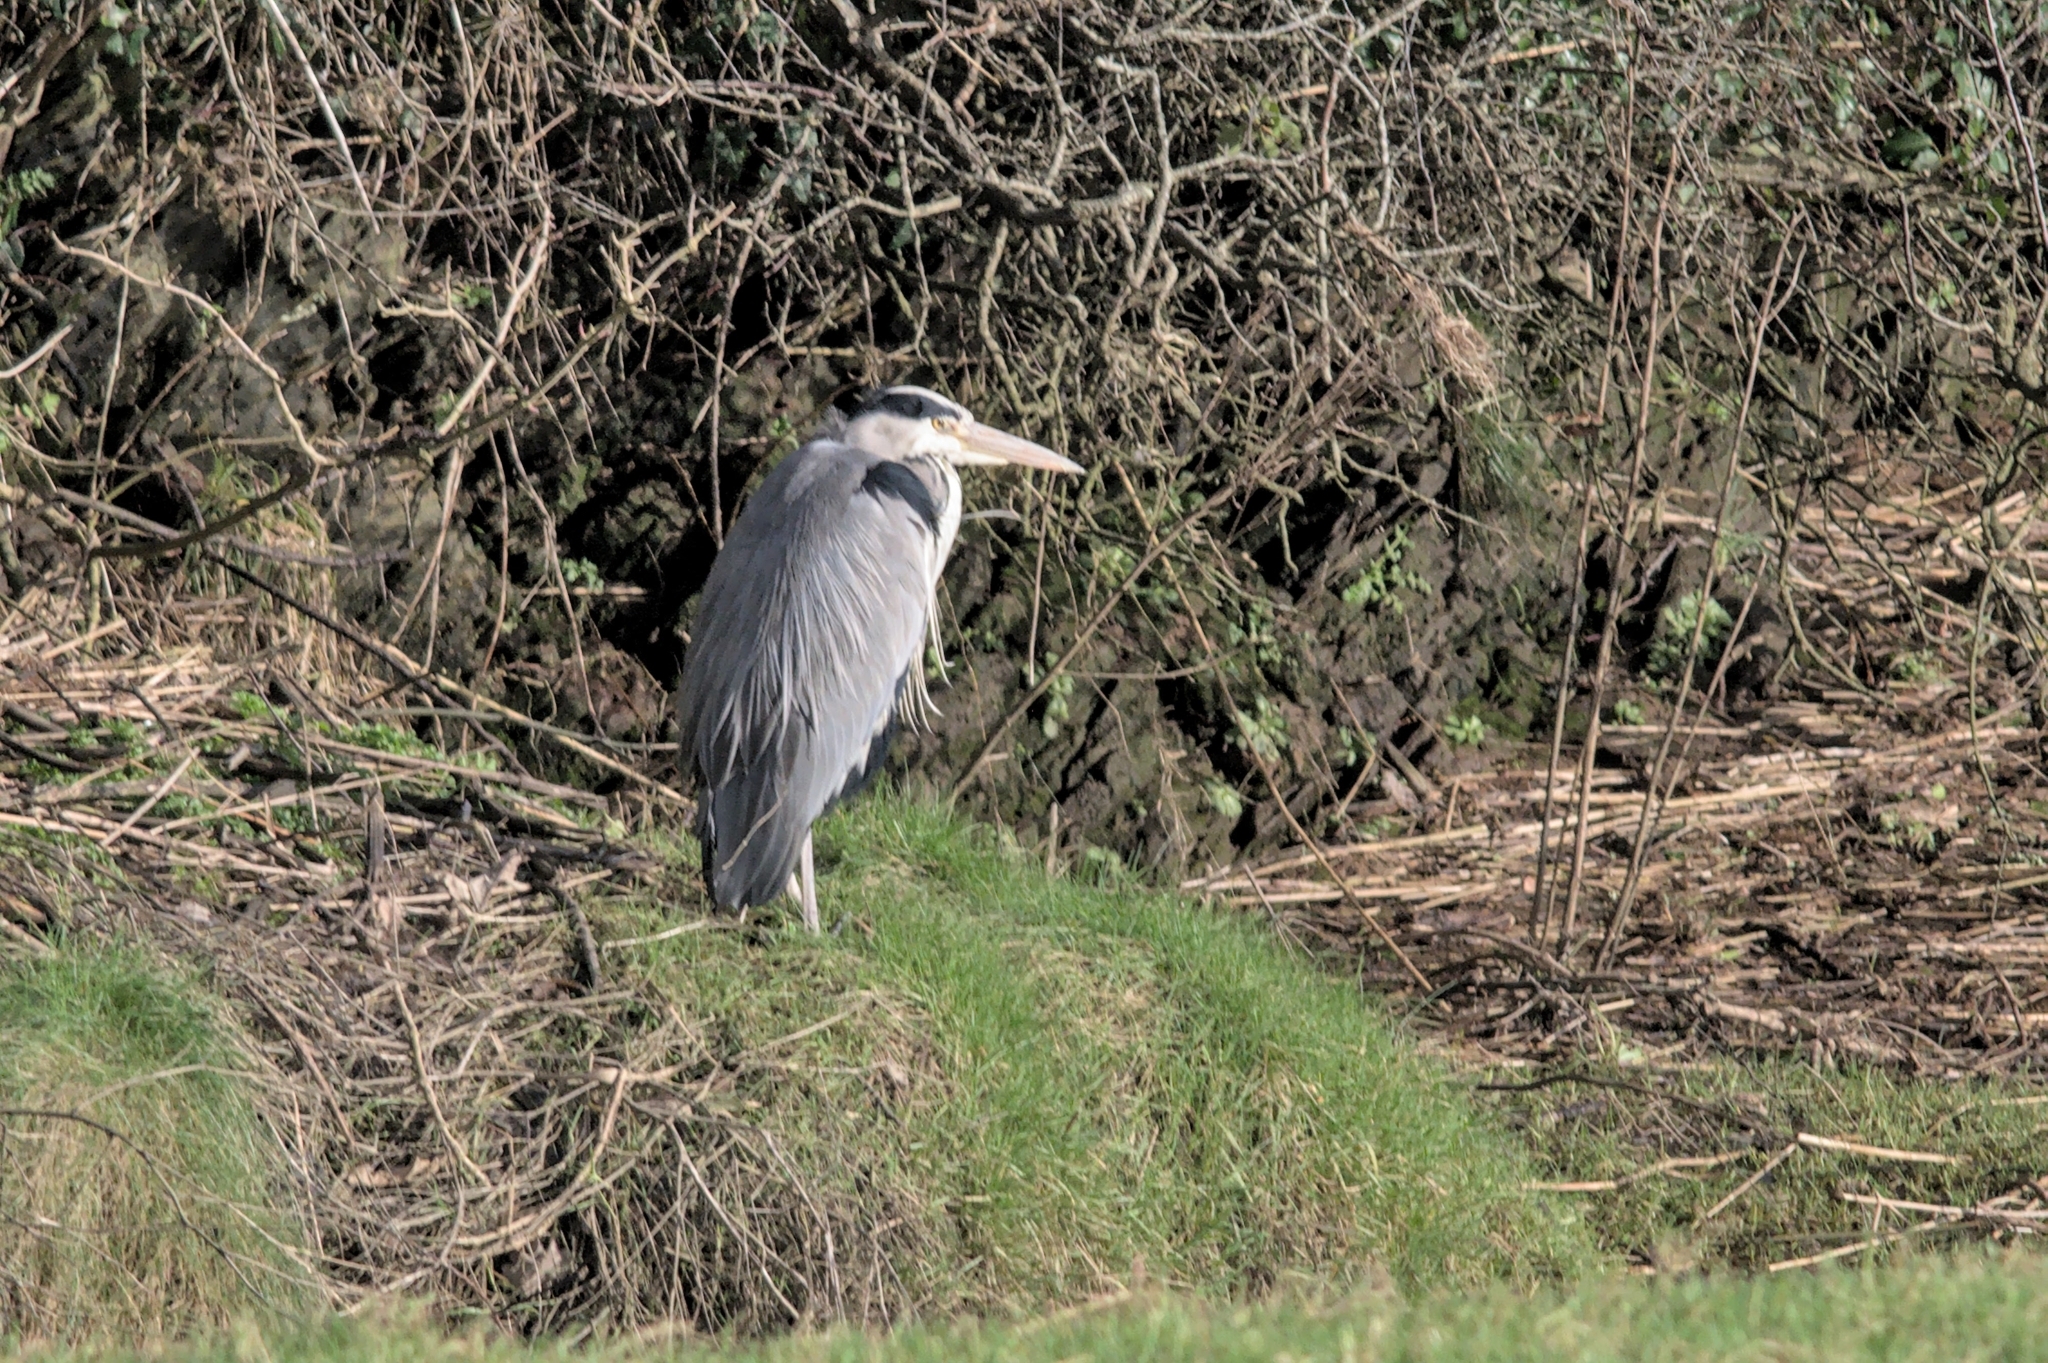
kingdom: Animalia
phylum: Chordata
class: Aves
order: Pelecaniformes
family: Ardeidae
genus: Ardea
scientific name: Ardea cinerea
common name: Grey heron
